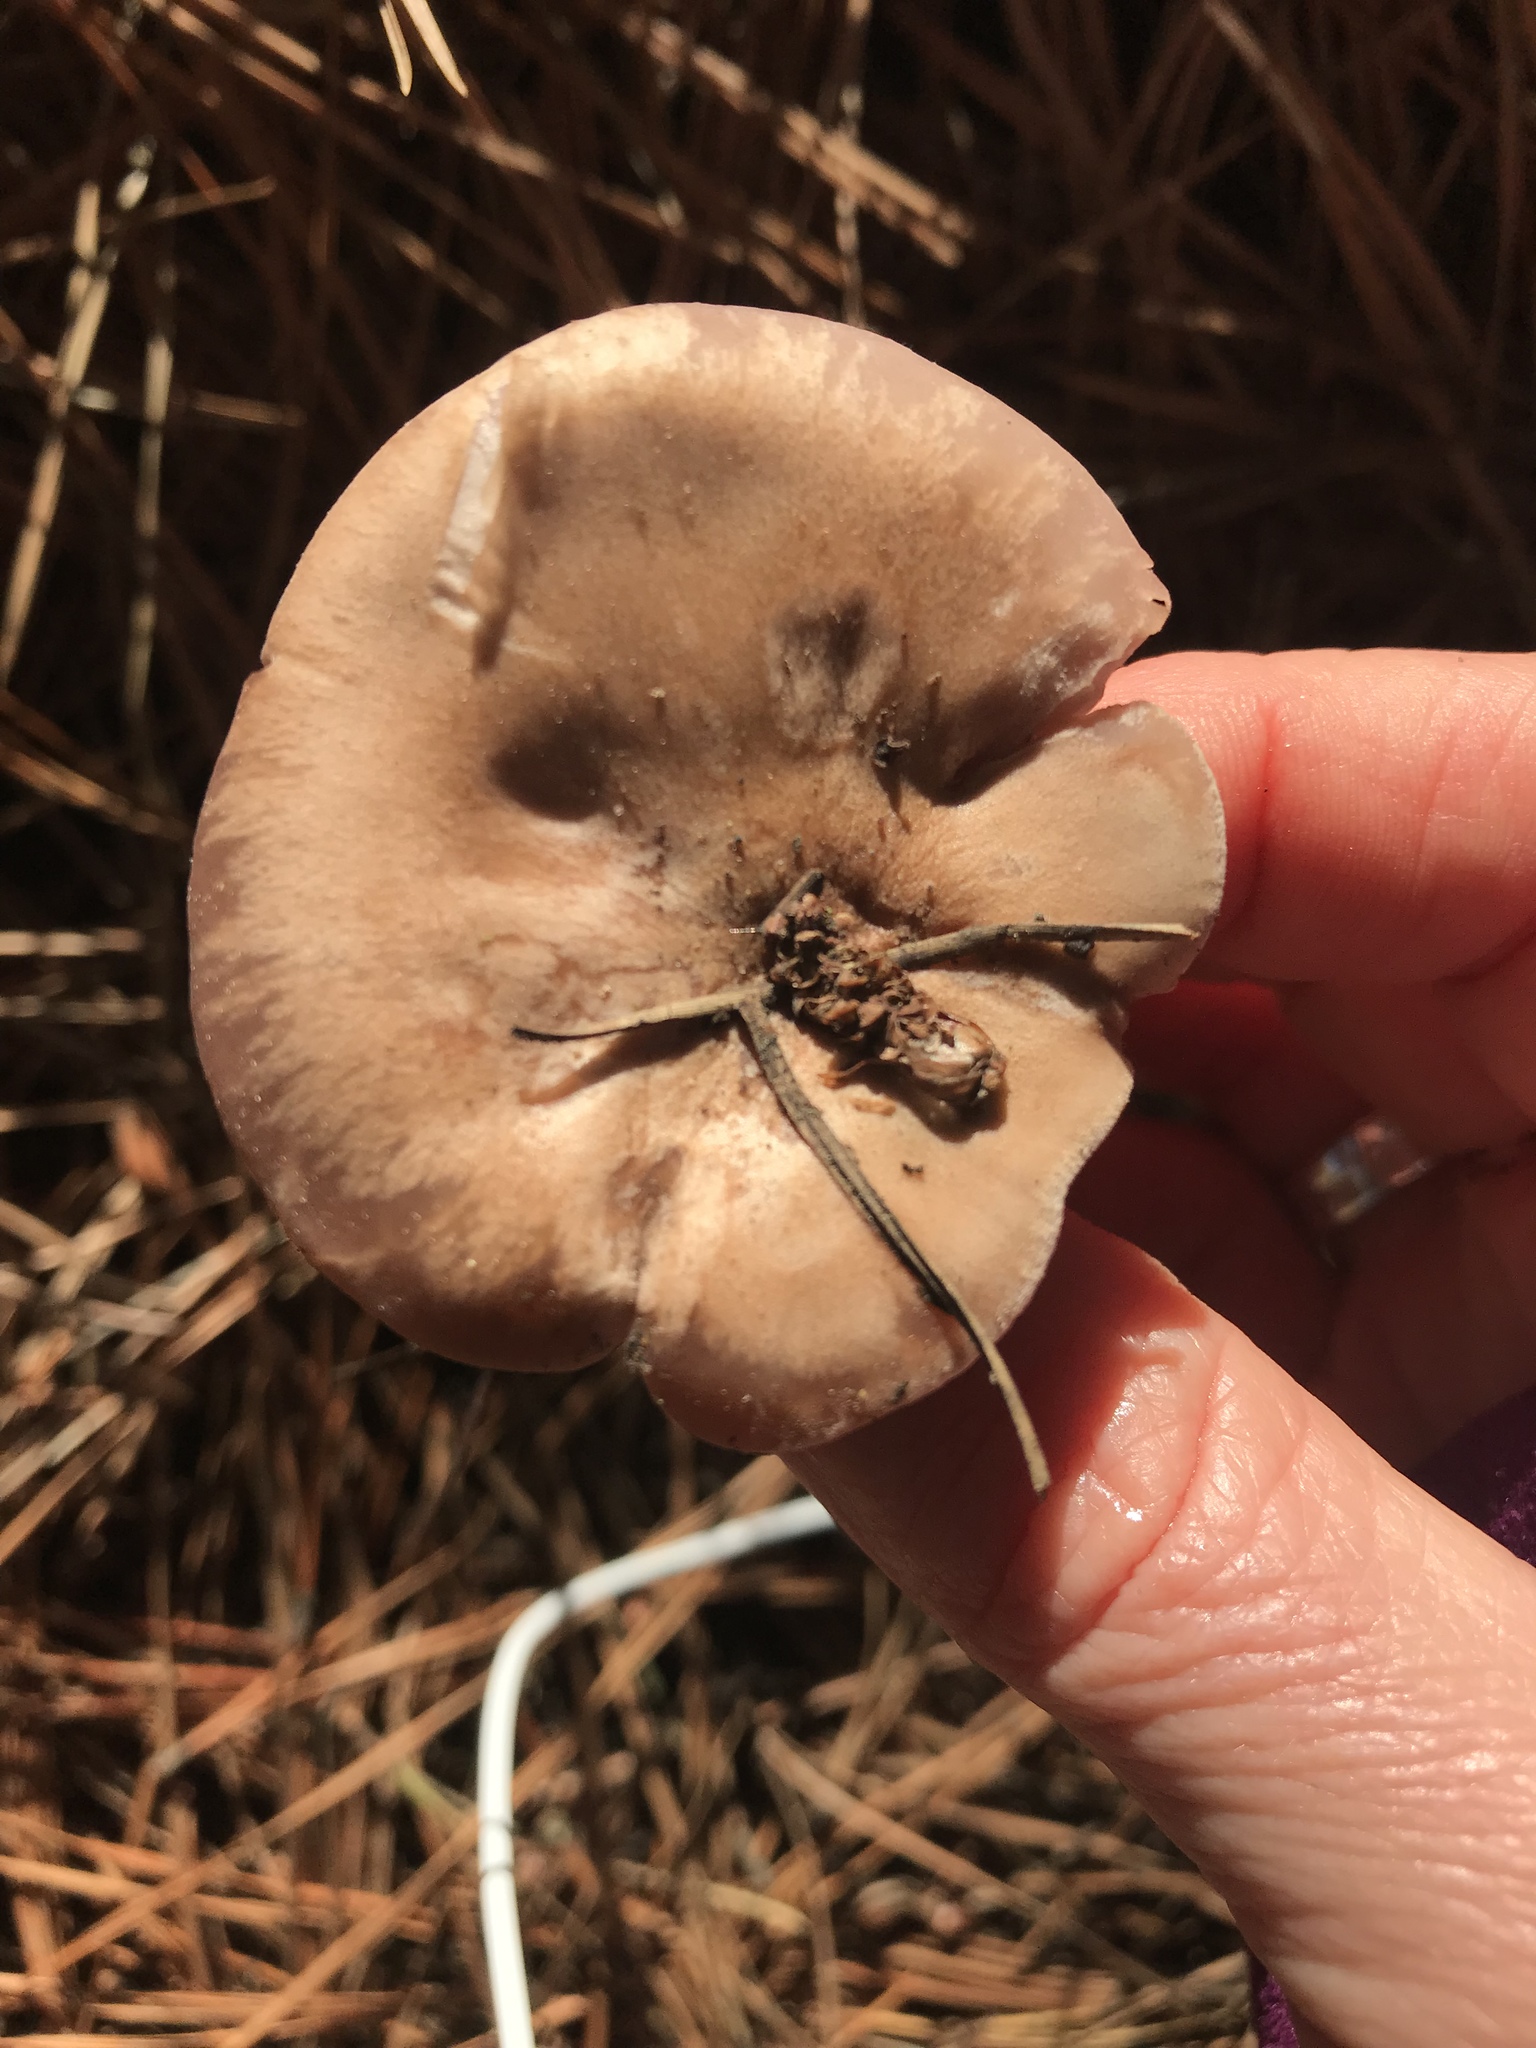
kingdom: Fungi
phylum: Basidiomycota
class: Agaricomycetes
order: Agaricales
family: Tricholomataceae
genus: Collybia
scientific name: Collybia
